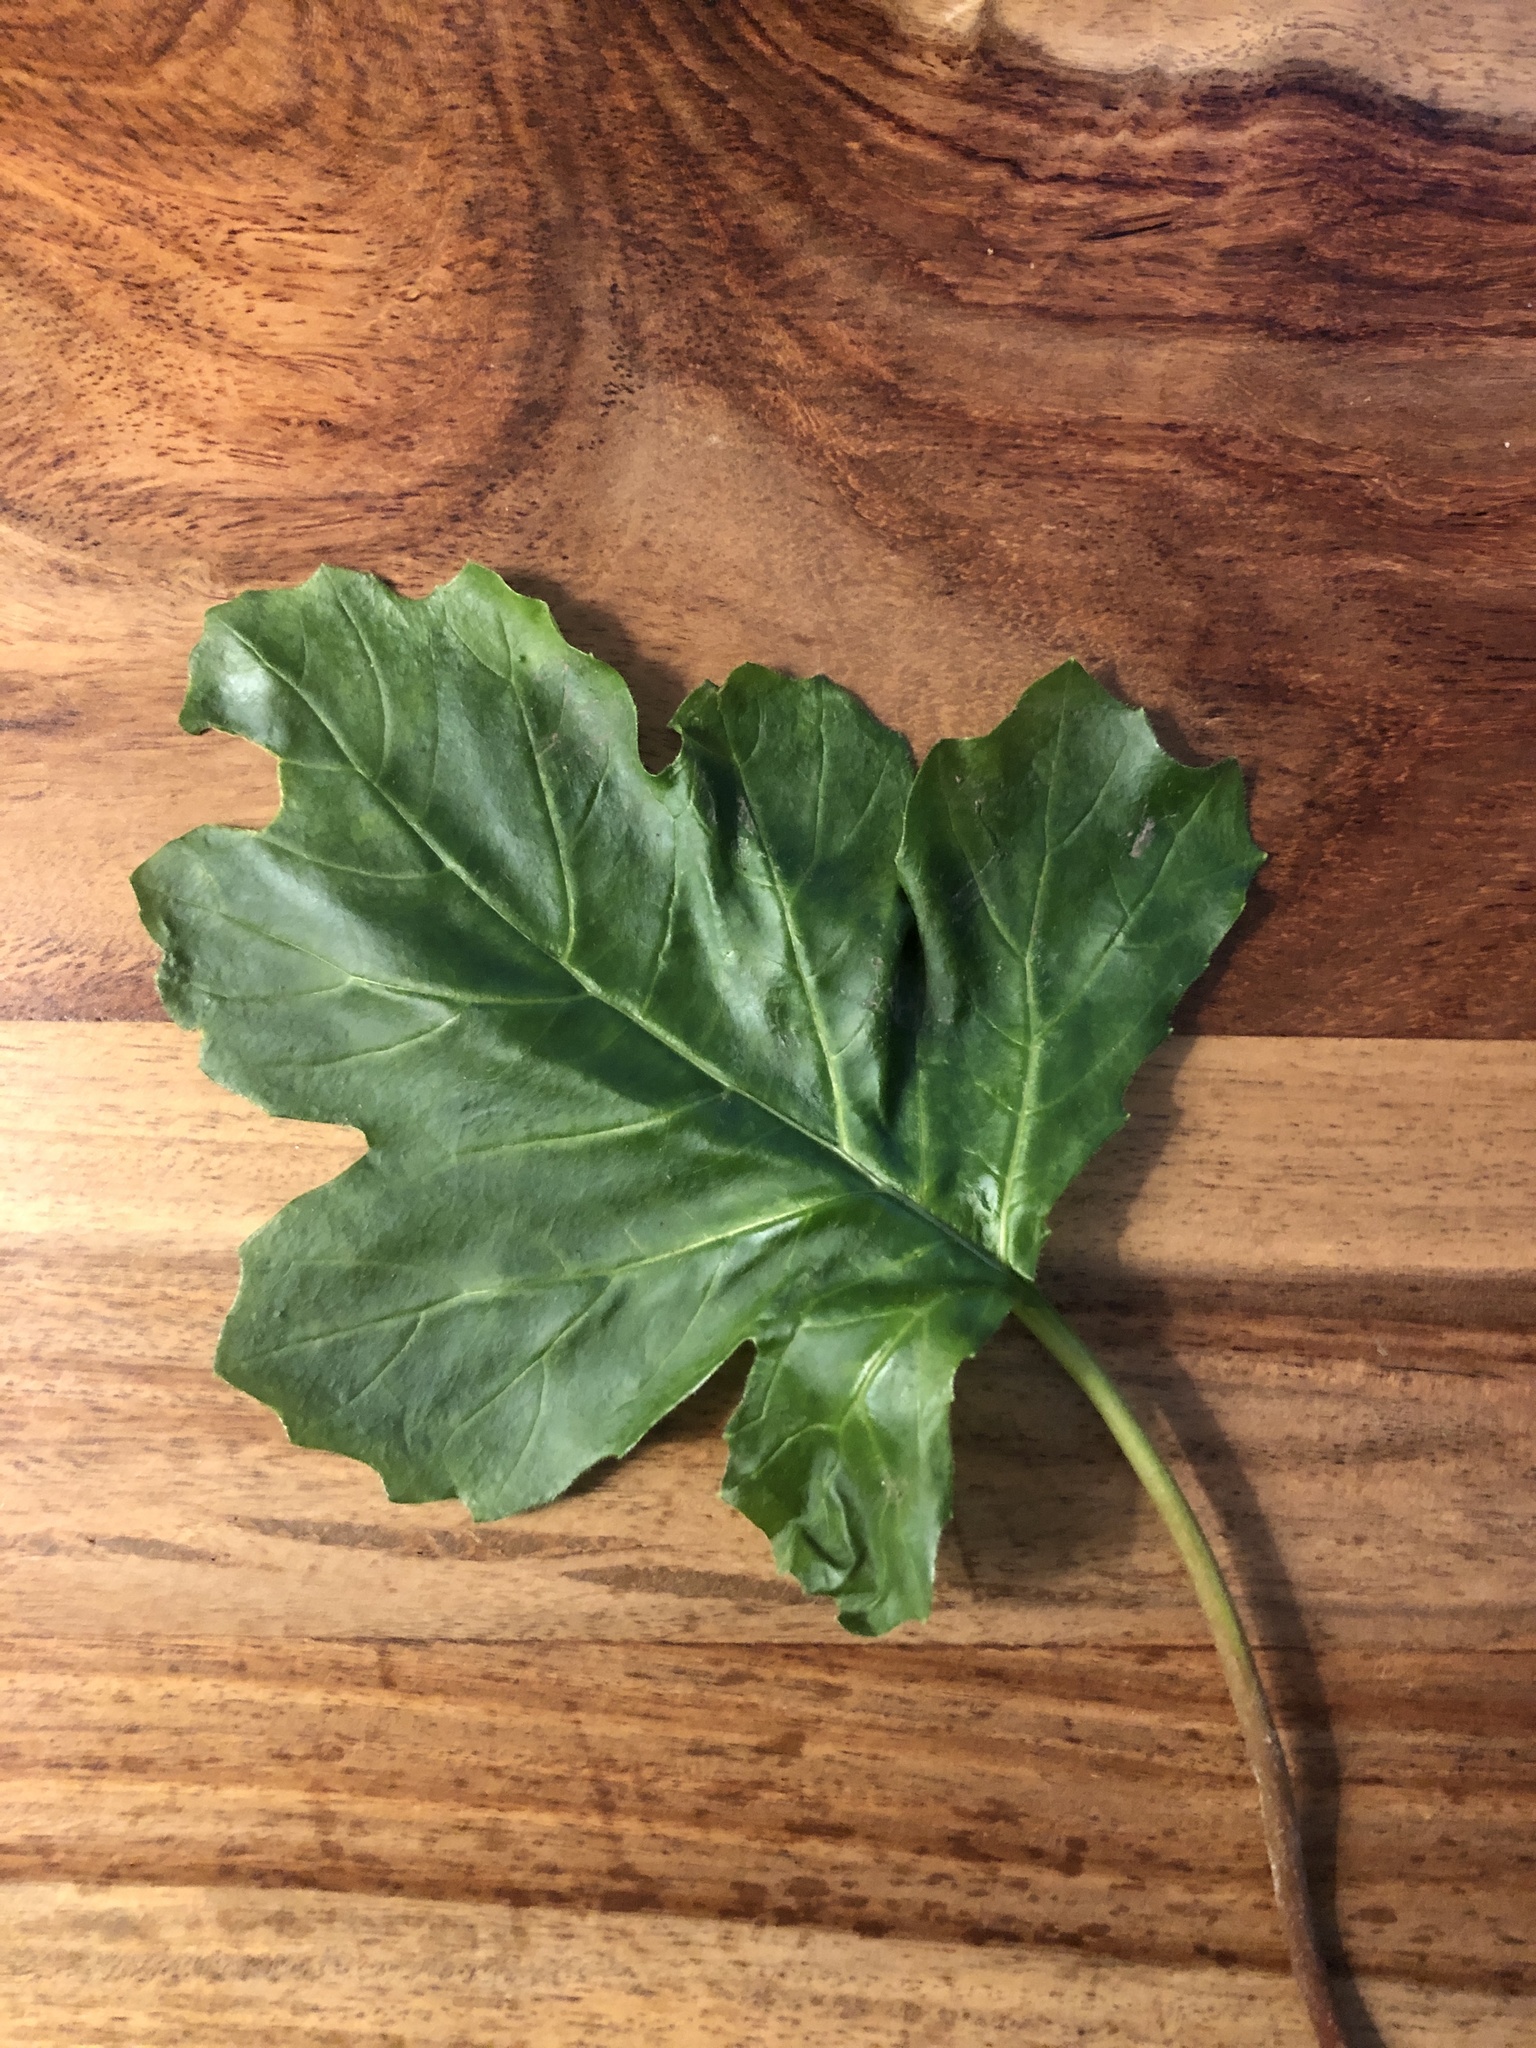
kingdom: Plantae
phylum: Tracheophyta
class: Magnoliopsida
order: Lamiales
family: Acanthaceae
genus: Acanthus
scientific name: Acanthus mollis
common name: Bear's-breech
